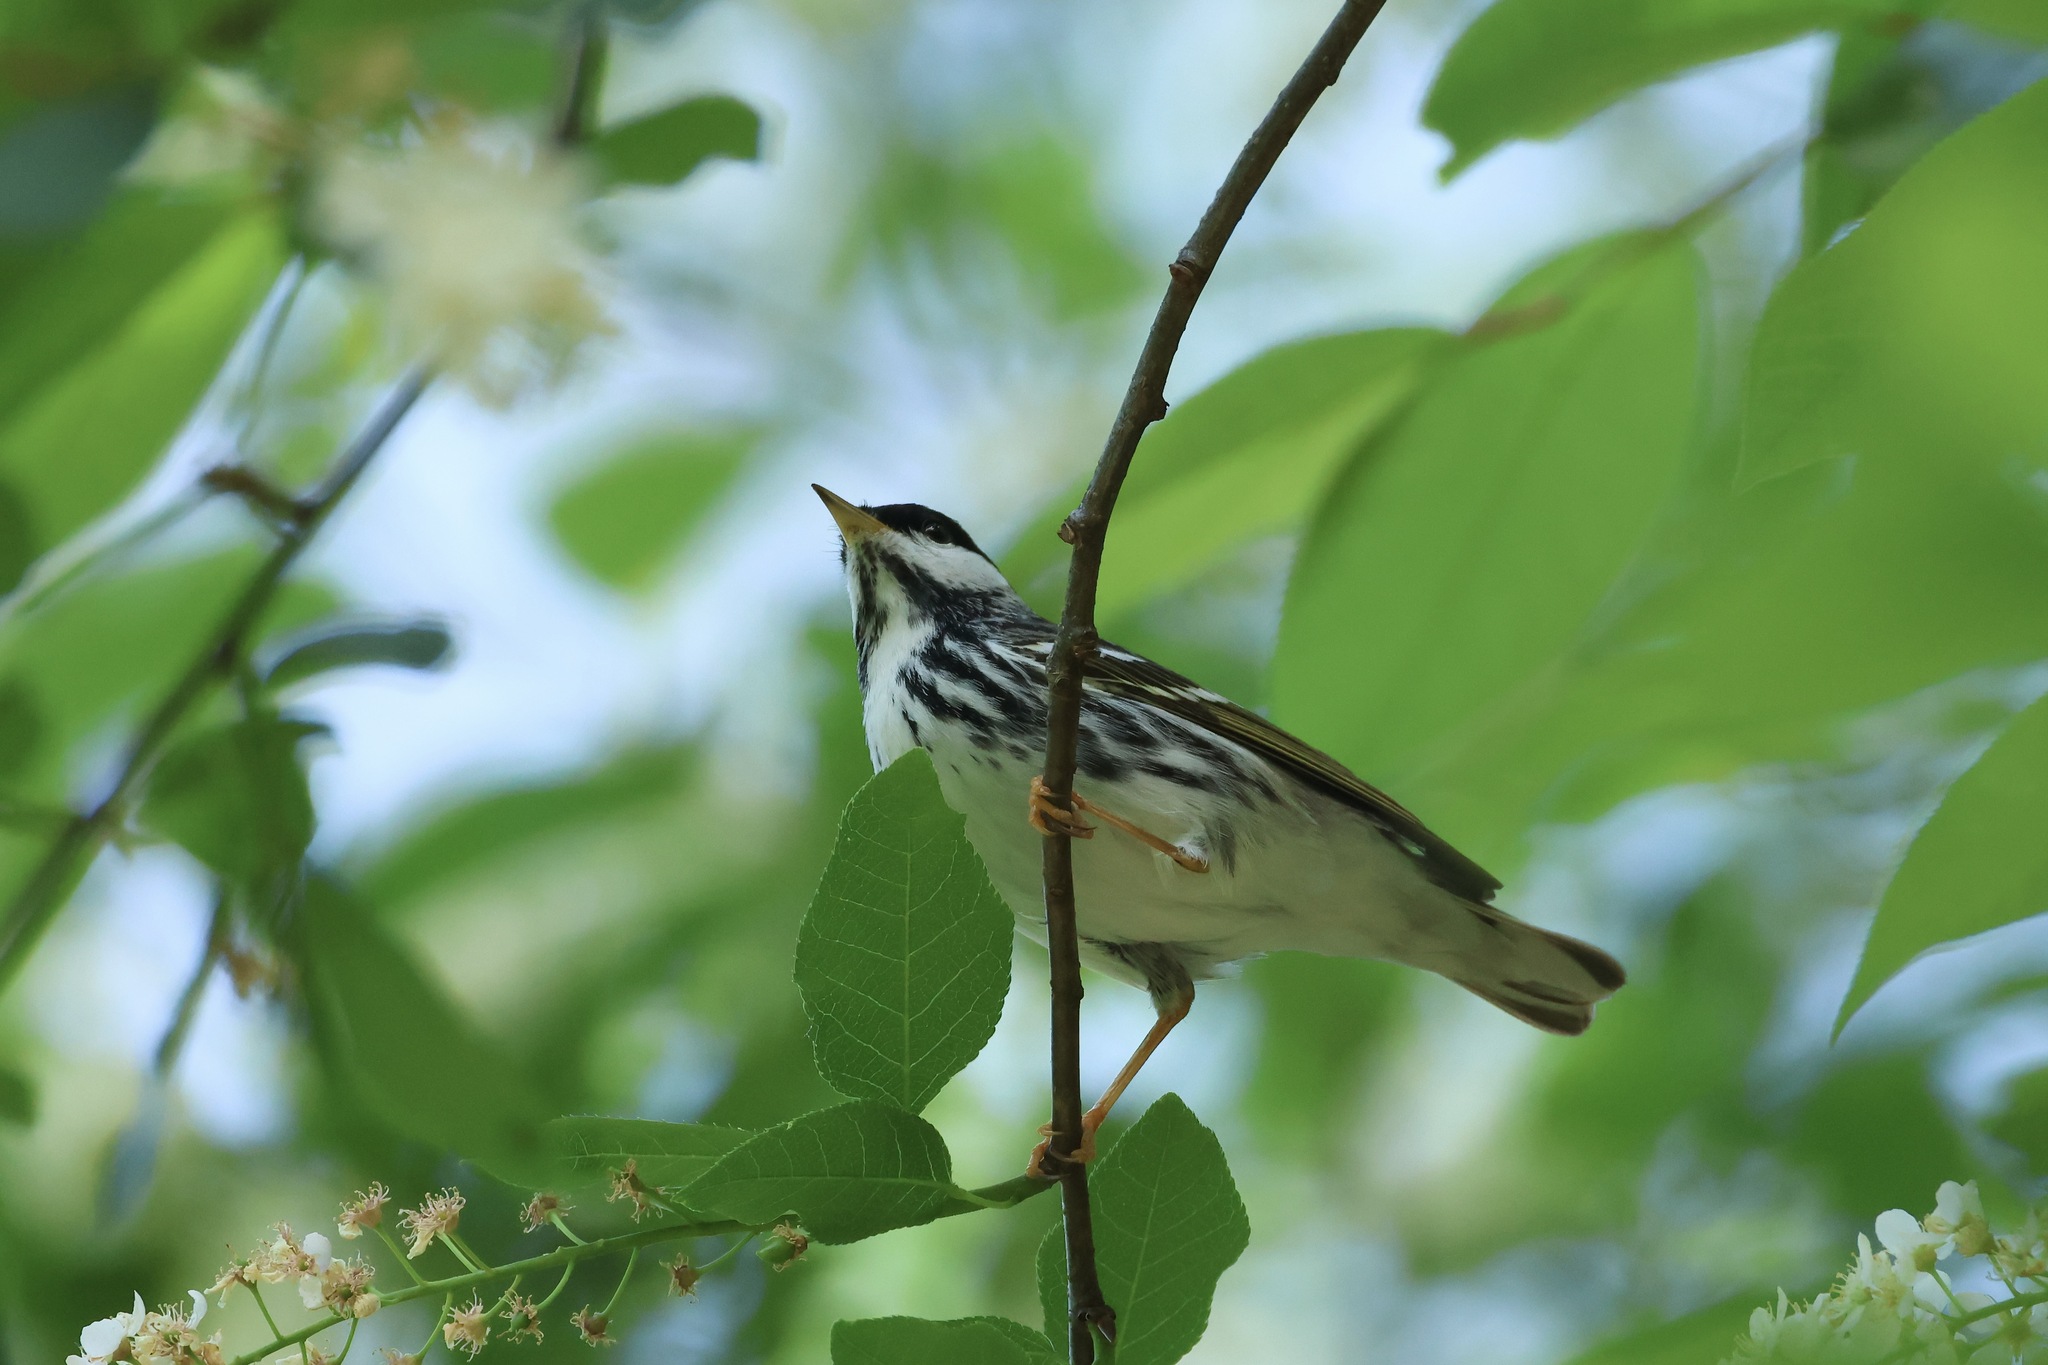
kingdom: Animalia
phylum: Chordata
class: Aves
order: Passeriformes
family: Parulidae
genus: Setophaga
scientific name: Setophaga striata
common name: Blackpoll warbler
